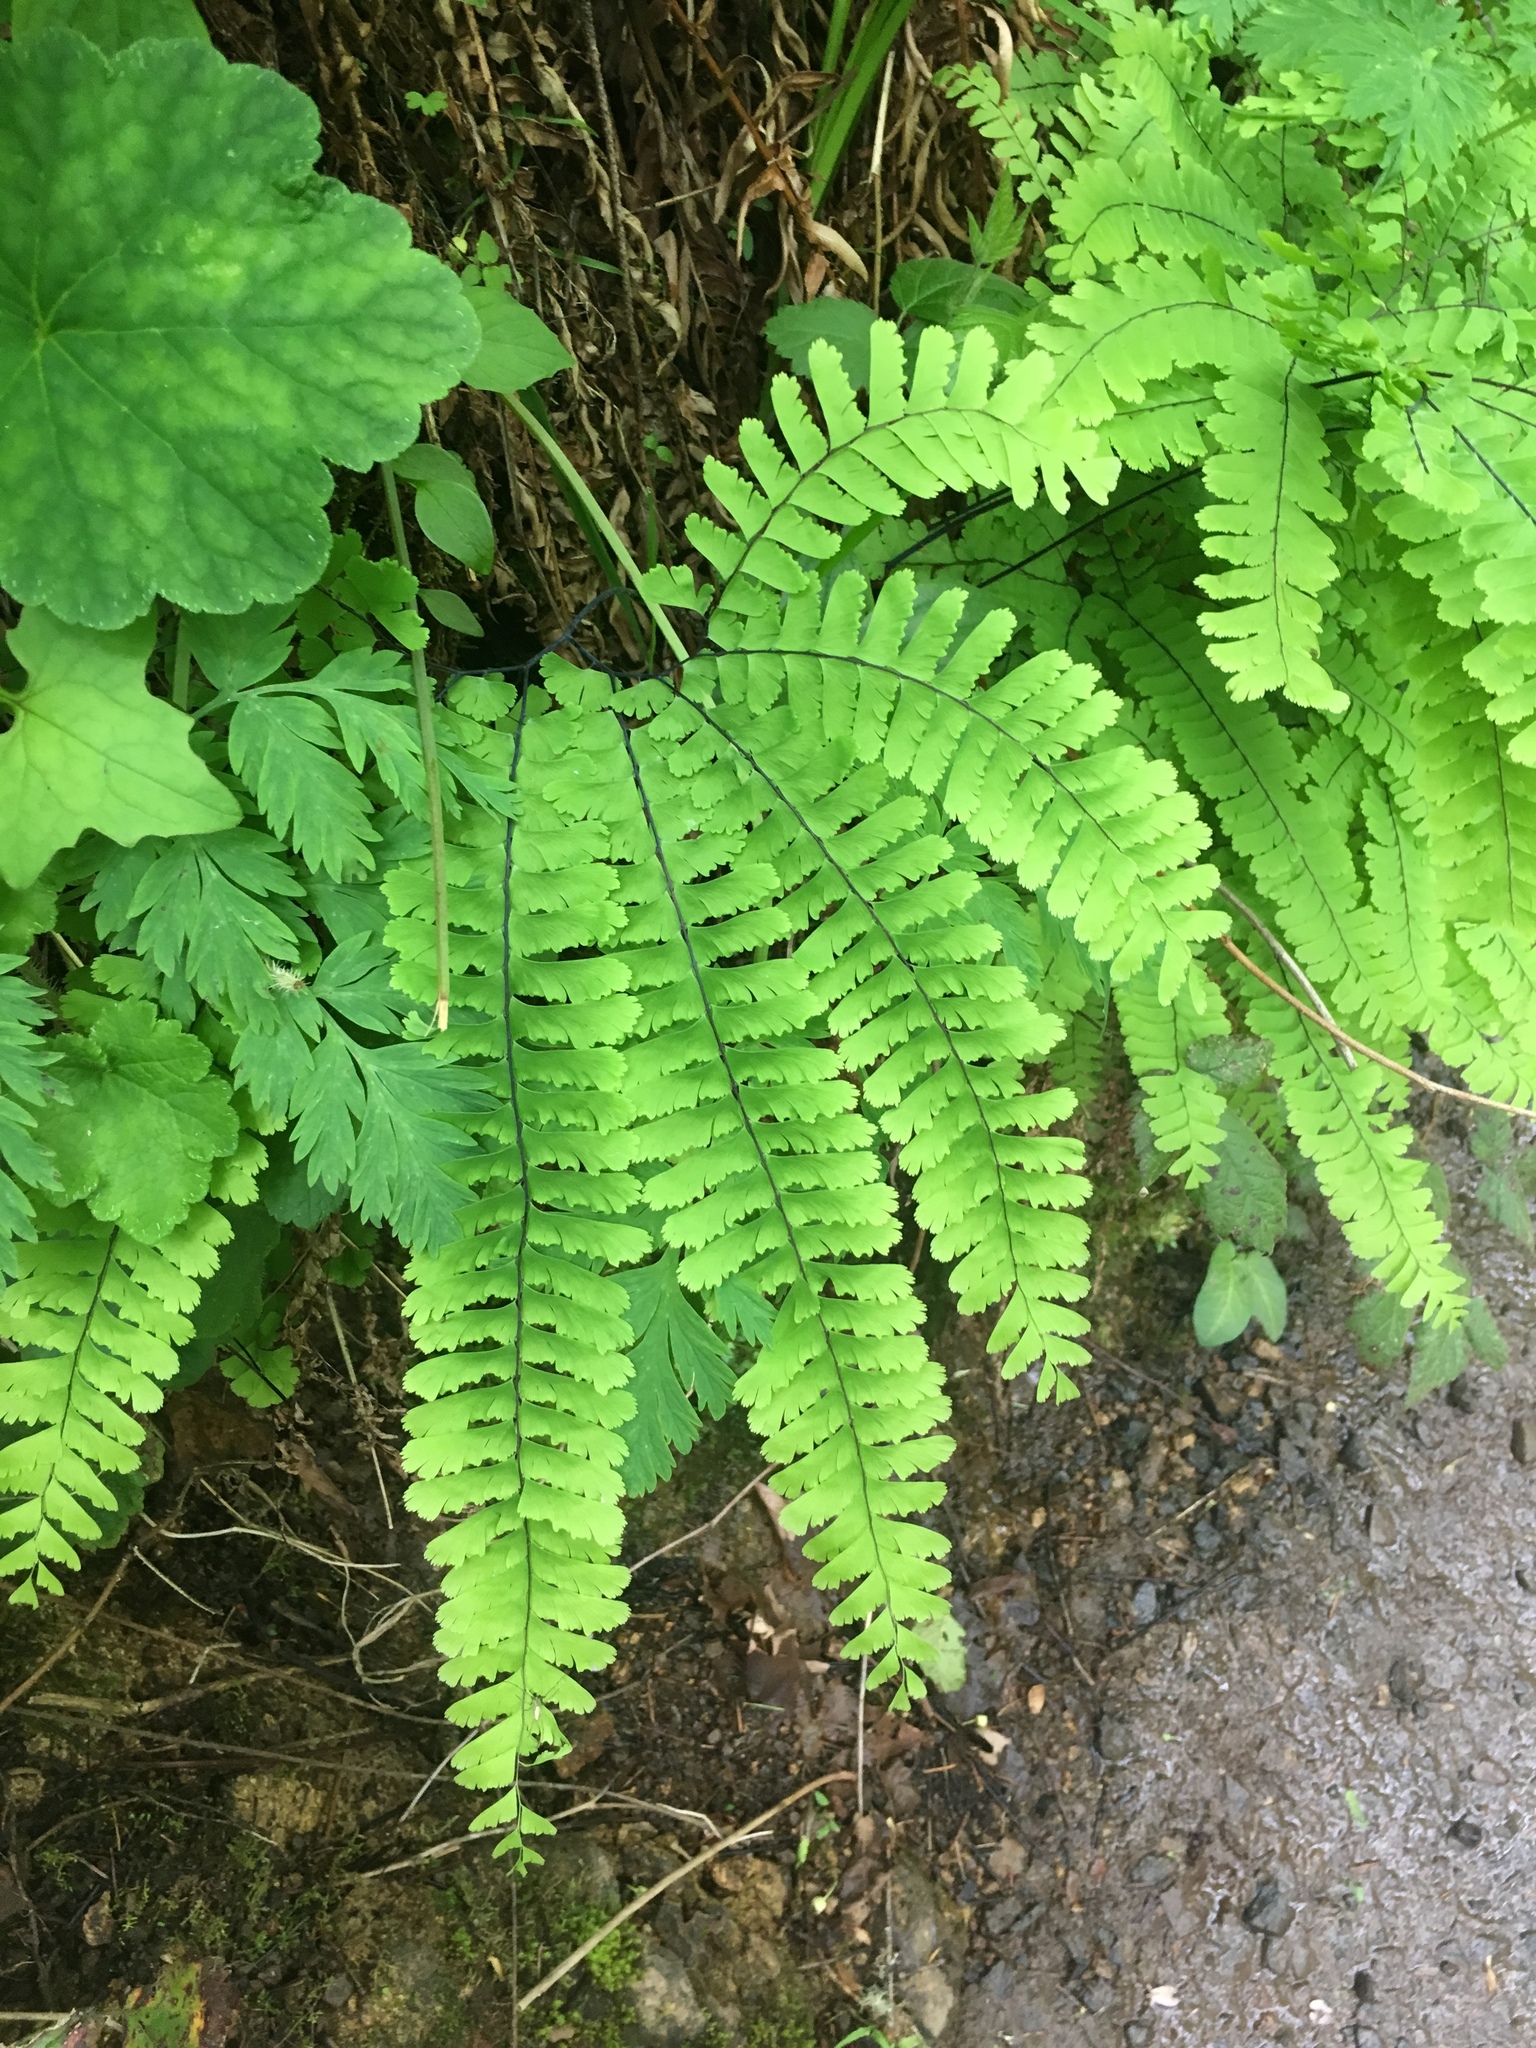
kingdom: Plantae
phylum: Tracheophyta
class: Polypodiopsida
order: Polypodiales
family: Pteridaceae
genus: Adiantum
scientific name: Adiantum aleuticum
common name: Aleutian maidenhair fern
